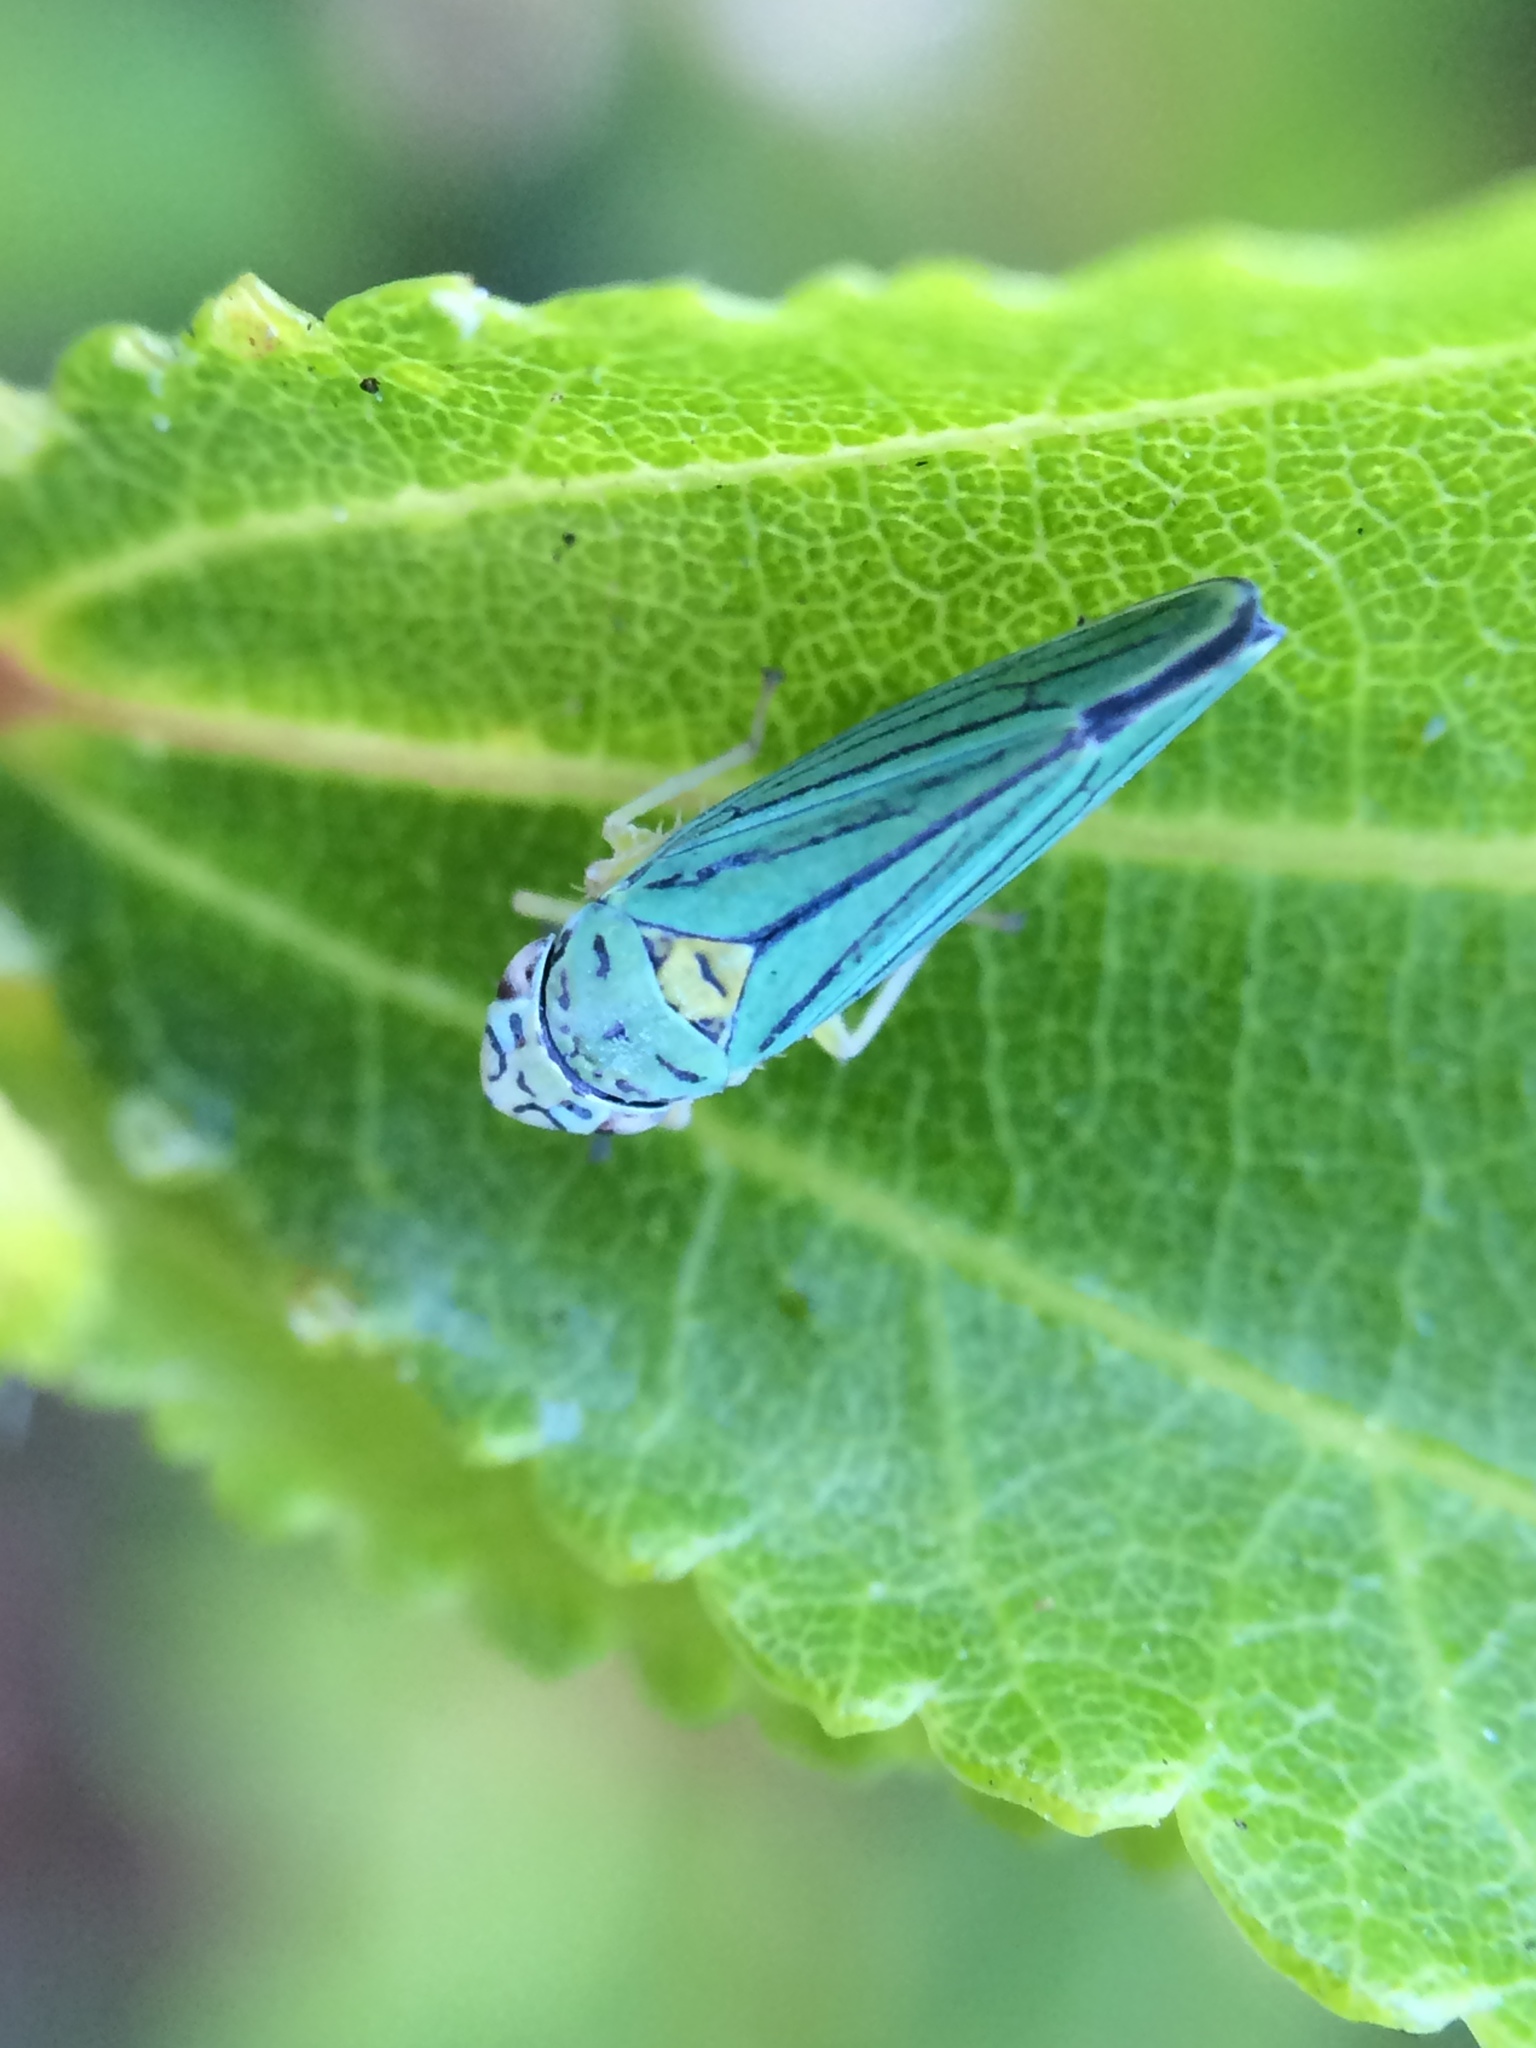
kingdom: Animalia
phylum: Arthropoda
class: Insecta
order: Hemiptera
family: Cicadellidae
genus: Graphocephala
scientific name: Graphocephala atropunctata
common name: Blue-green sharpshooter
